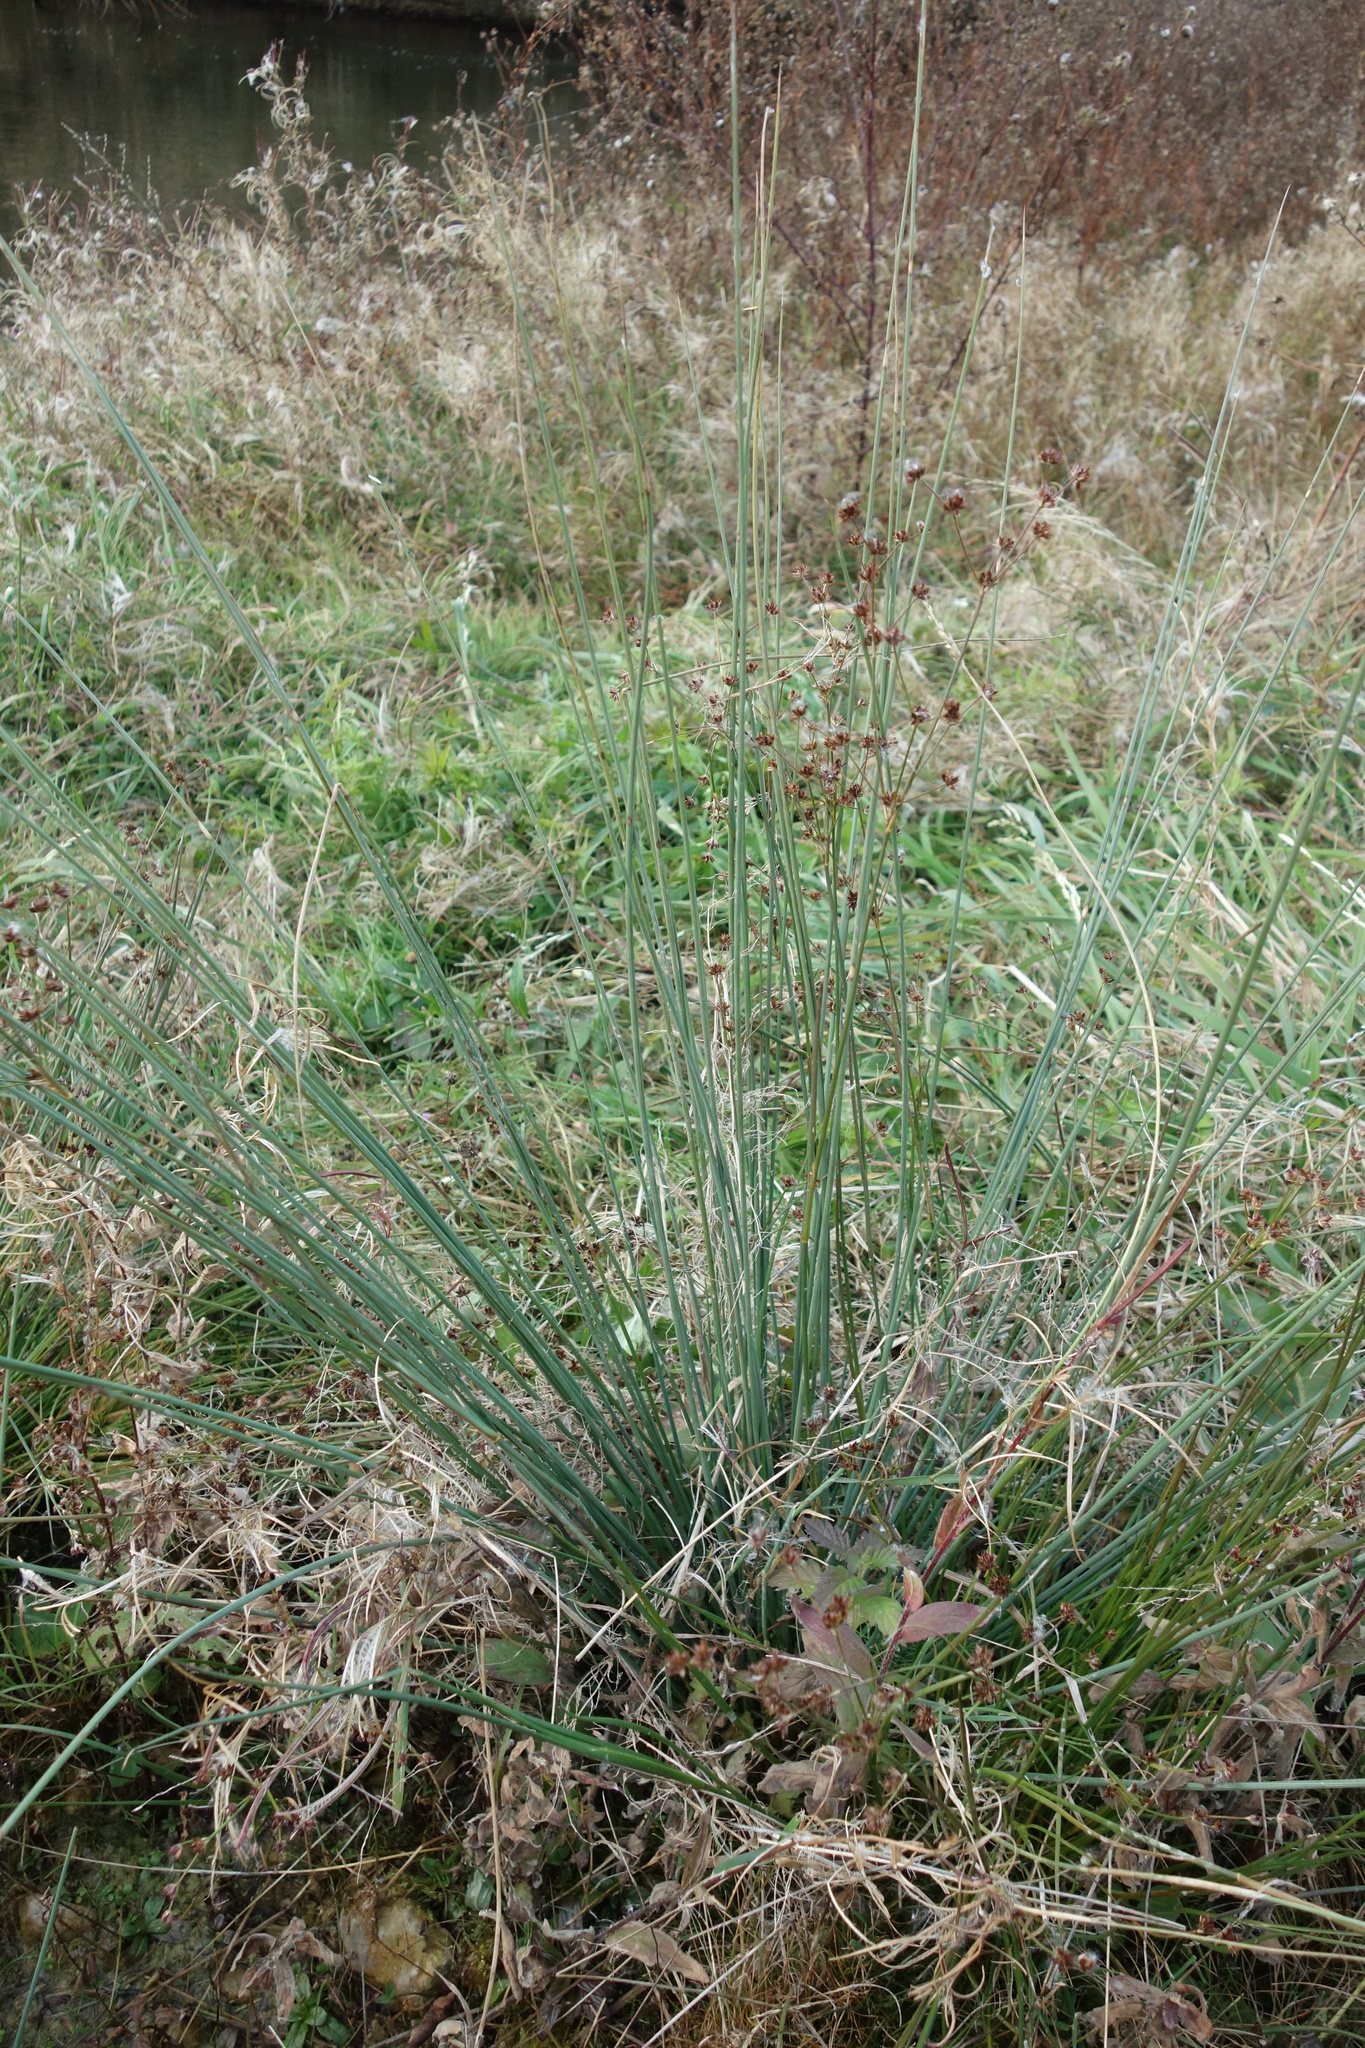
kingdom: Plantae
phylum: Tracheophyta
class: Liliopsida
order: Poales
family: Juncaceae
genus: Juncus
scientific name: Juncus articulatus
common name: Jointed rush
